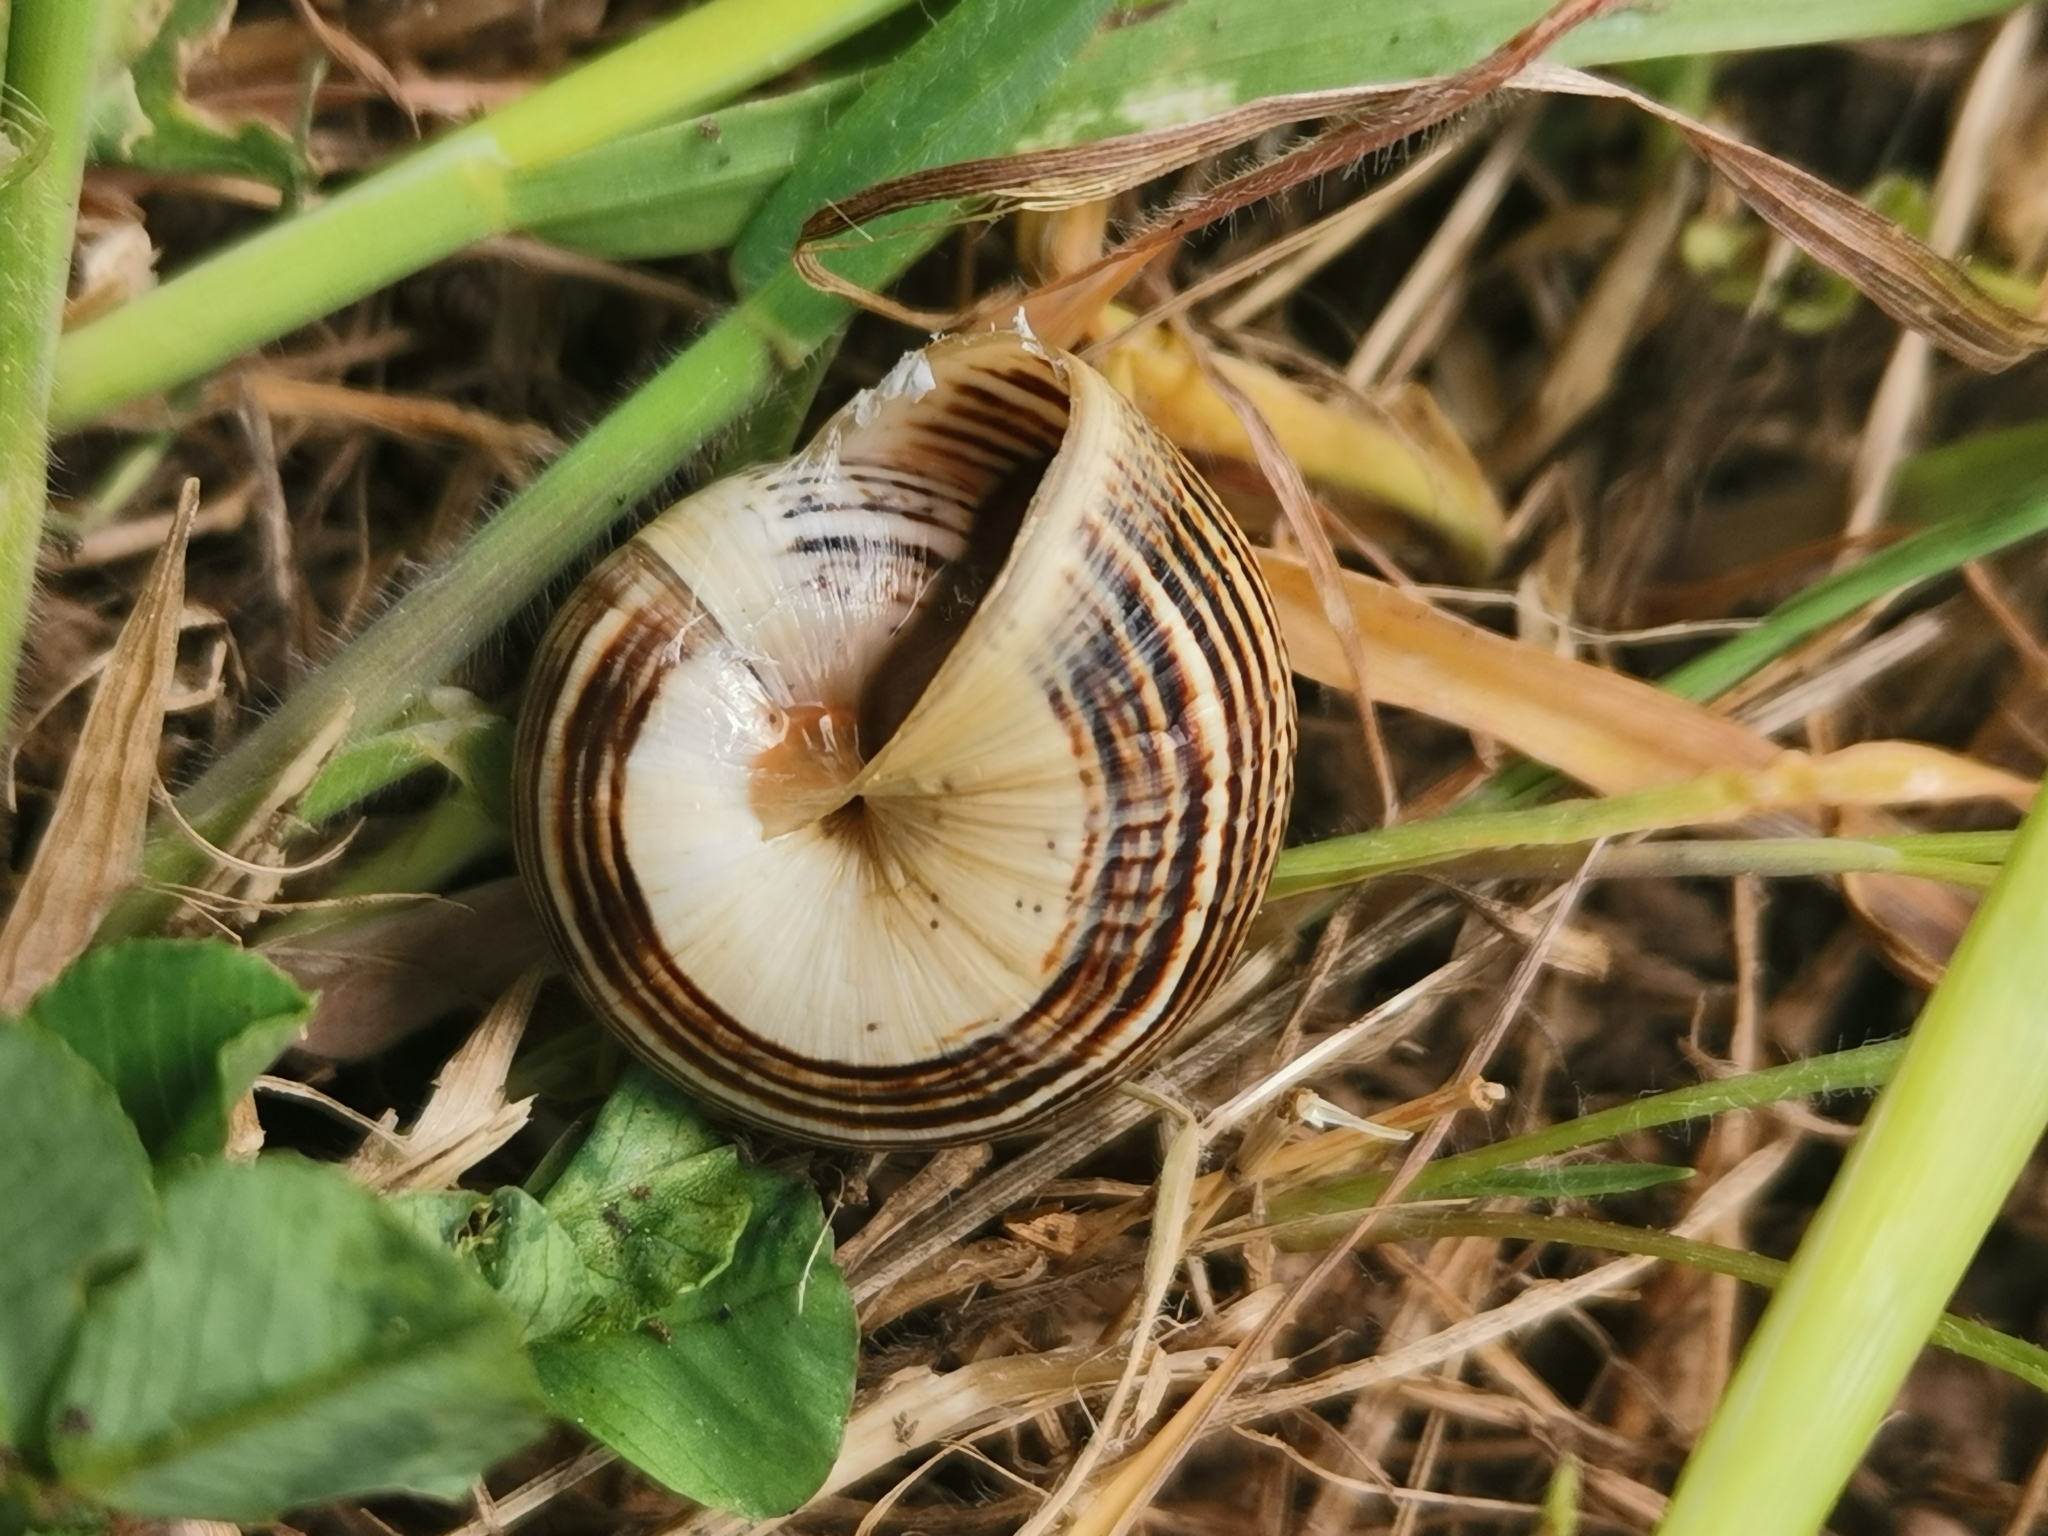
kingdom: Animalia
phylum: Mollusca
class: Gastropoda
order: Stylommatophora
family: Helicidae
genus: Theba
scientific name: Theba pisana
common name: White snail
